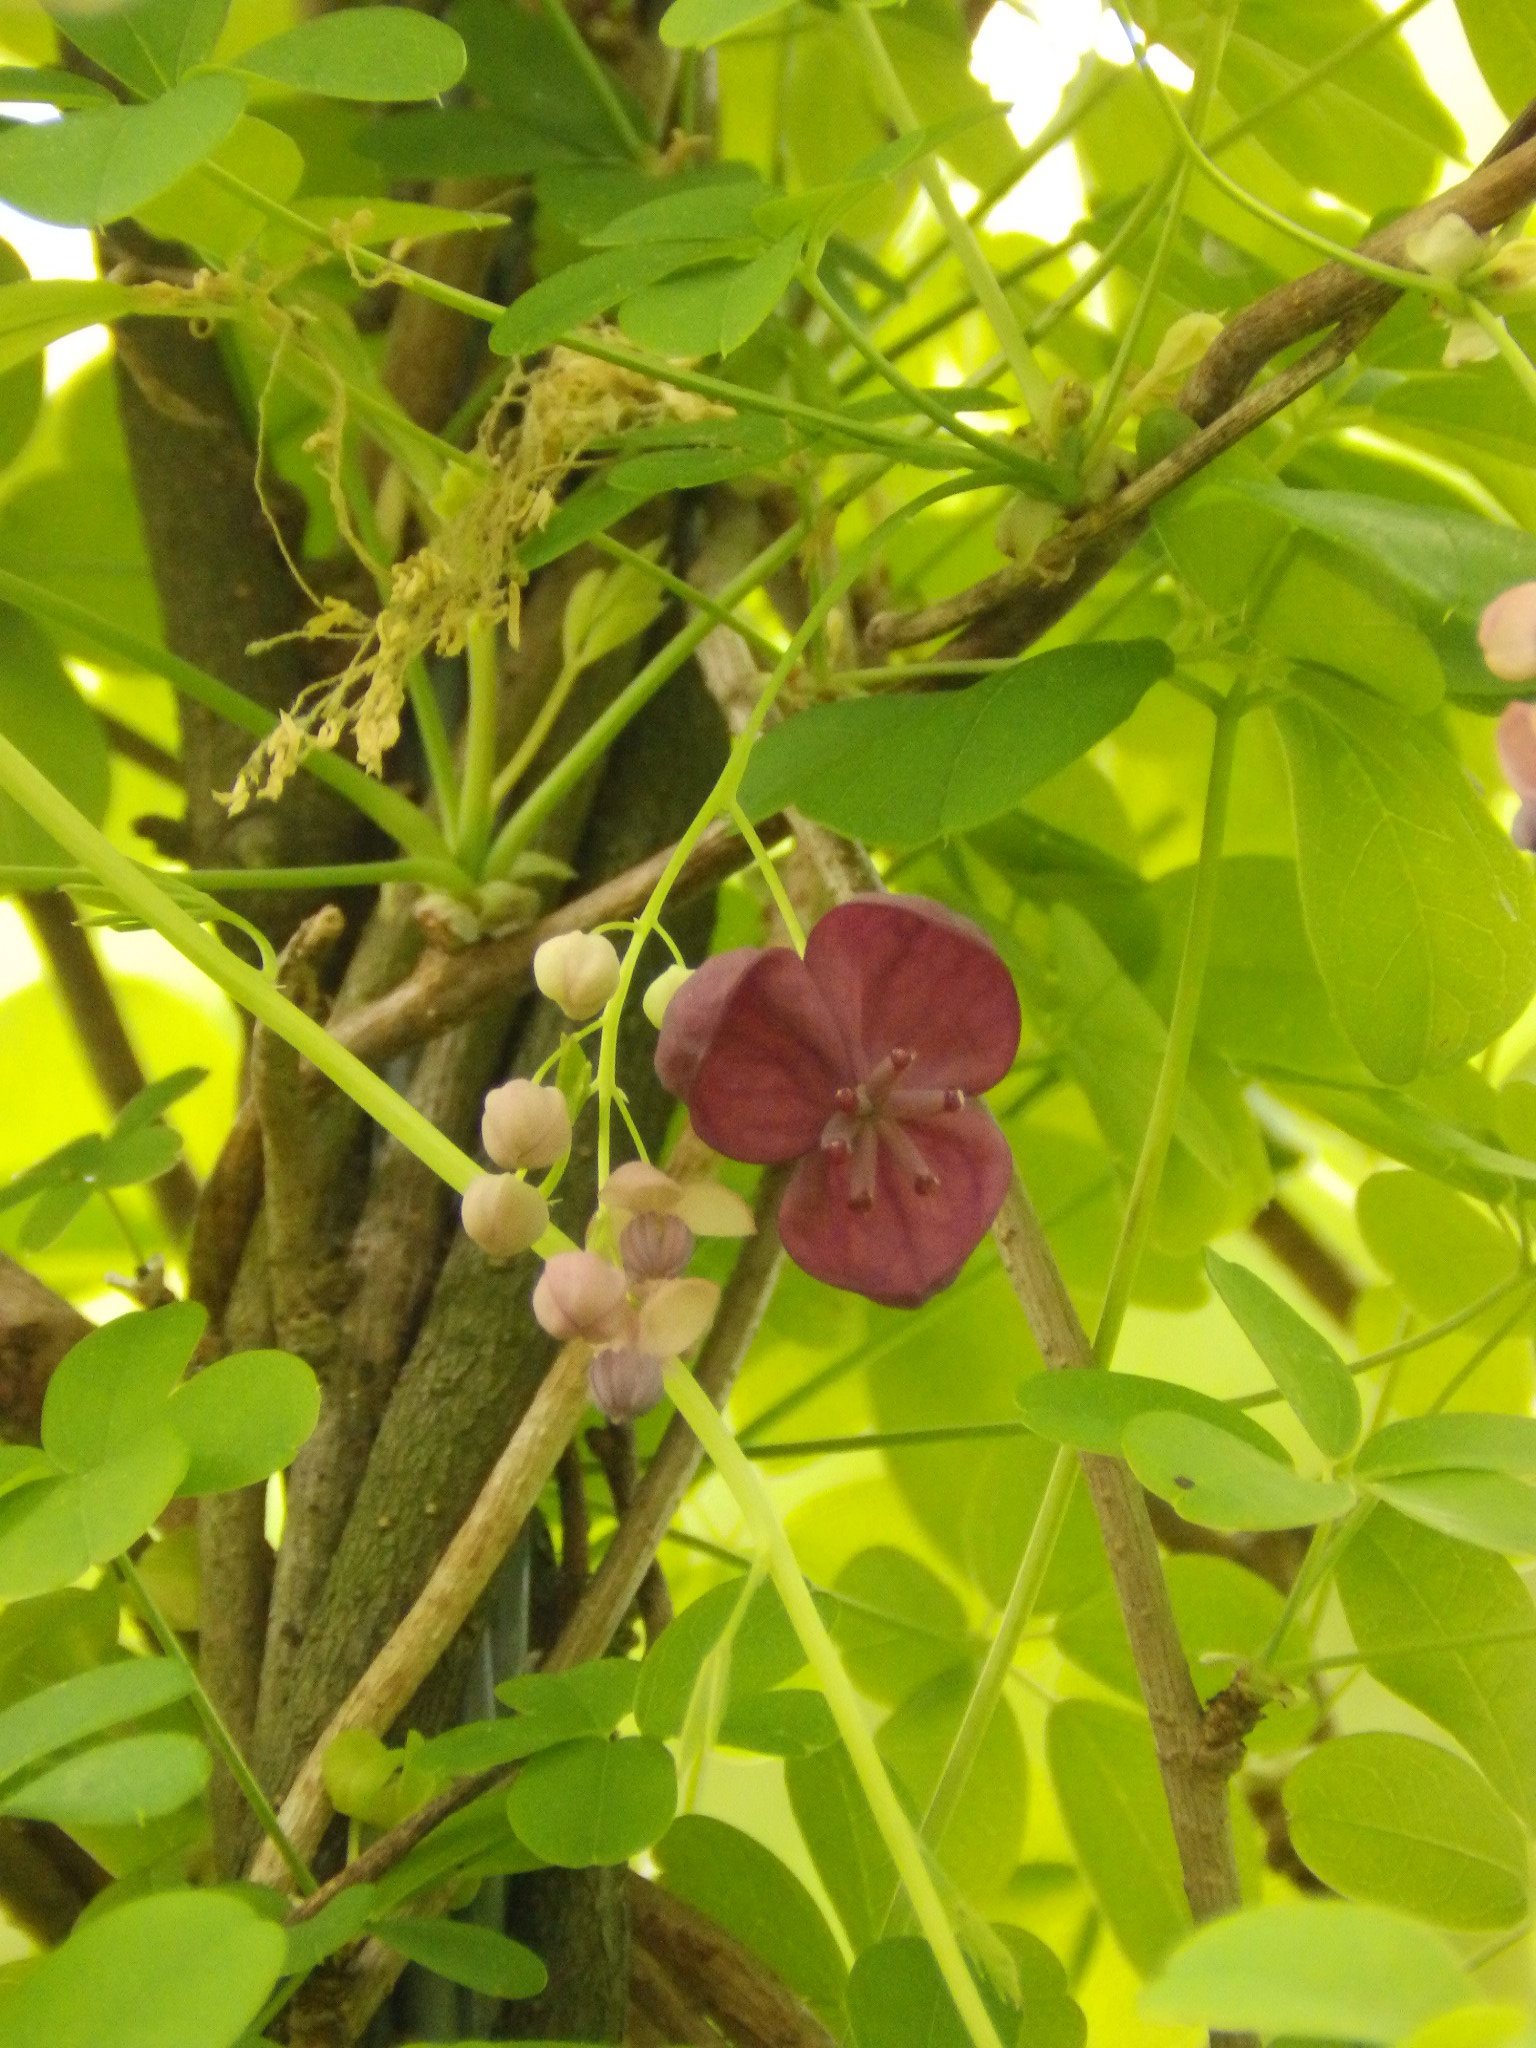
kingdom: Plantae
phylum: Tracheophyta
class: Magnoliopsida
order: Ranunculales
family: Lardizabalaceae
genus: Akebia
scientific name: Akebia quinata
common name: Five-leaf akebia
